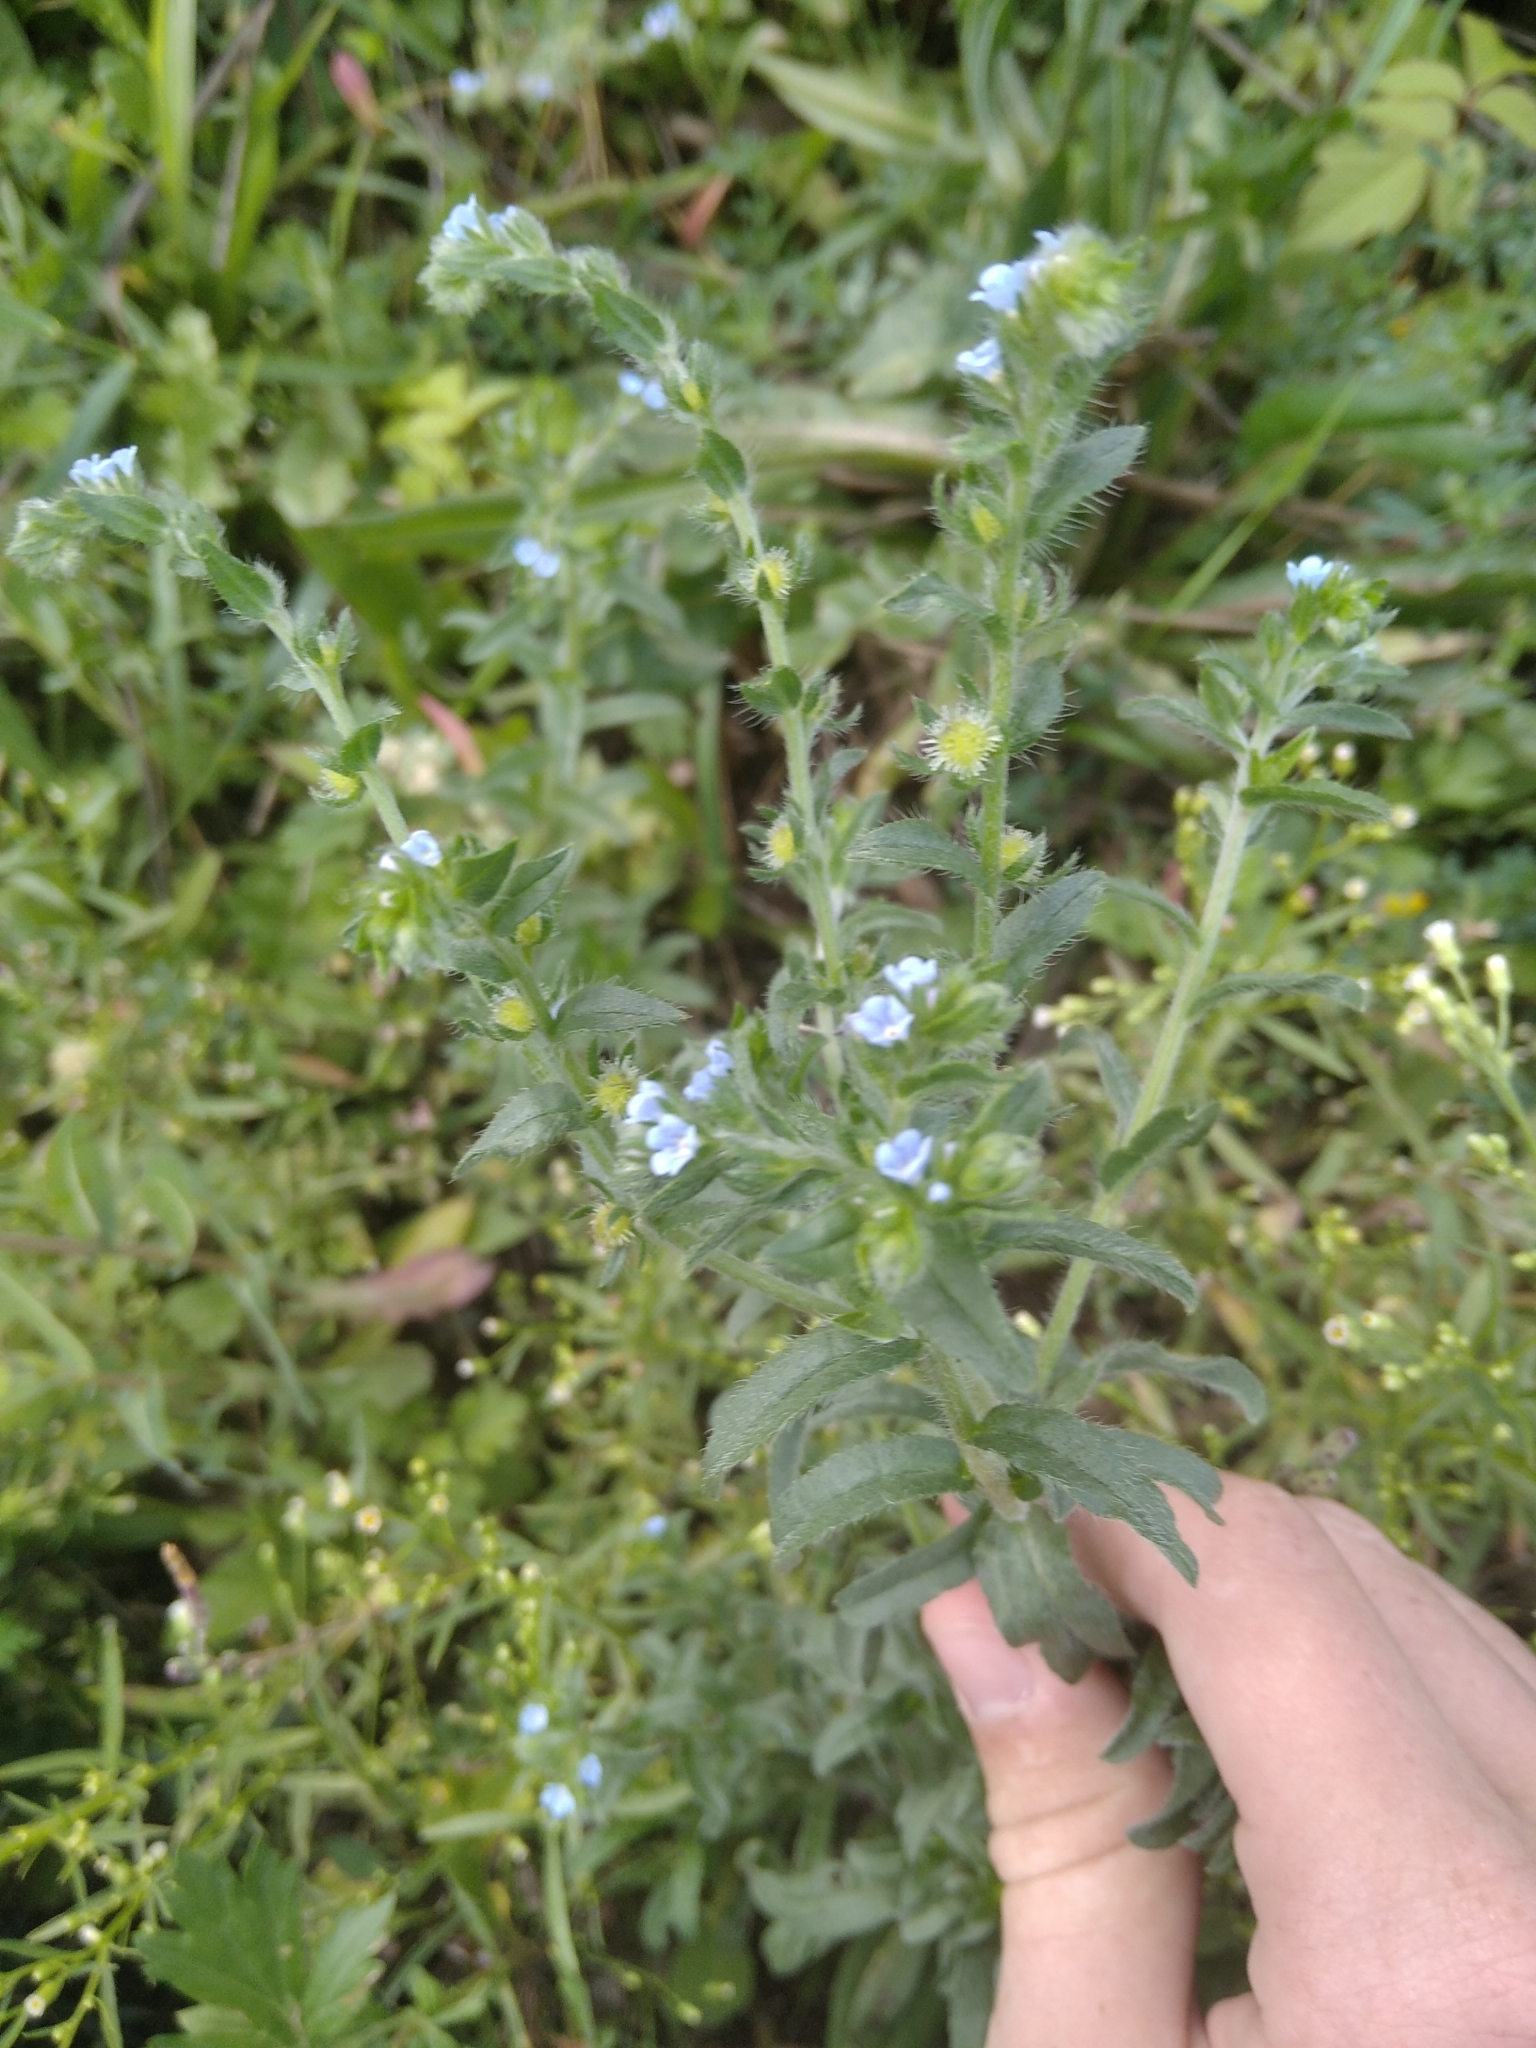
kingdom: Plantae
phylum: Tracheophyta
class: Magnoliopsida
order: Boraginales
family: Boraginaceae
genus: Lappula
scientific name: Lappula squarrosa
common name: European stickseed
